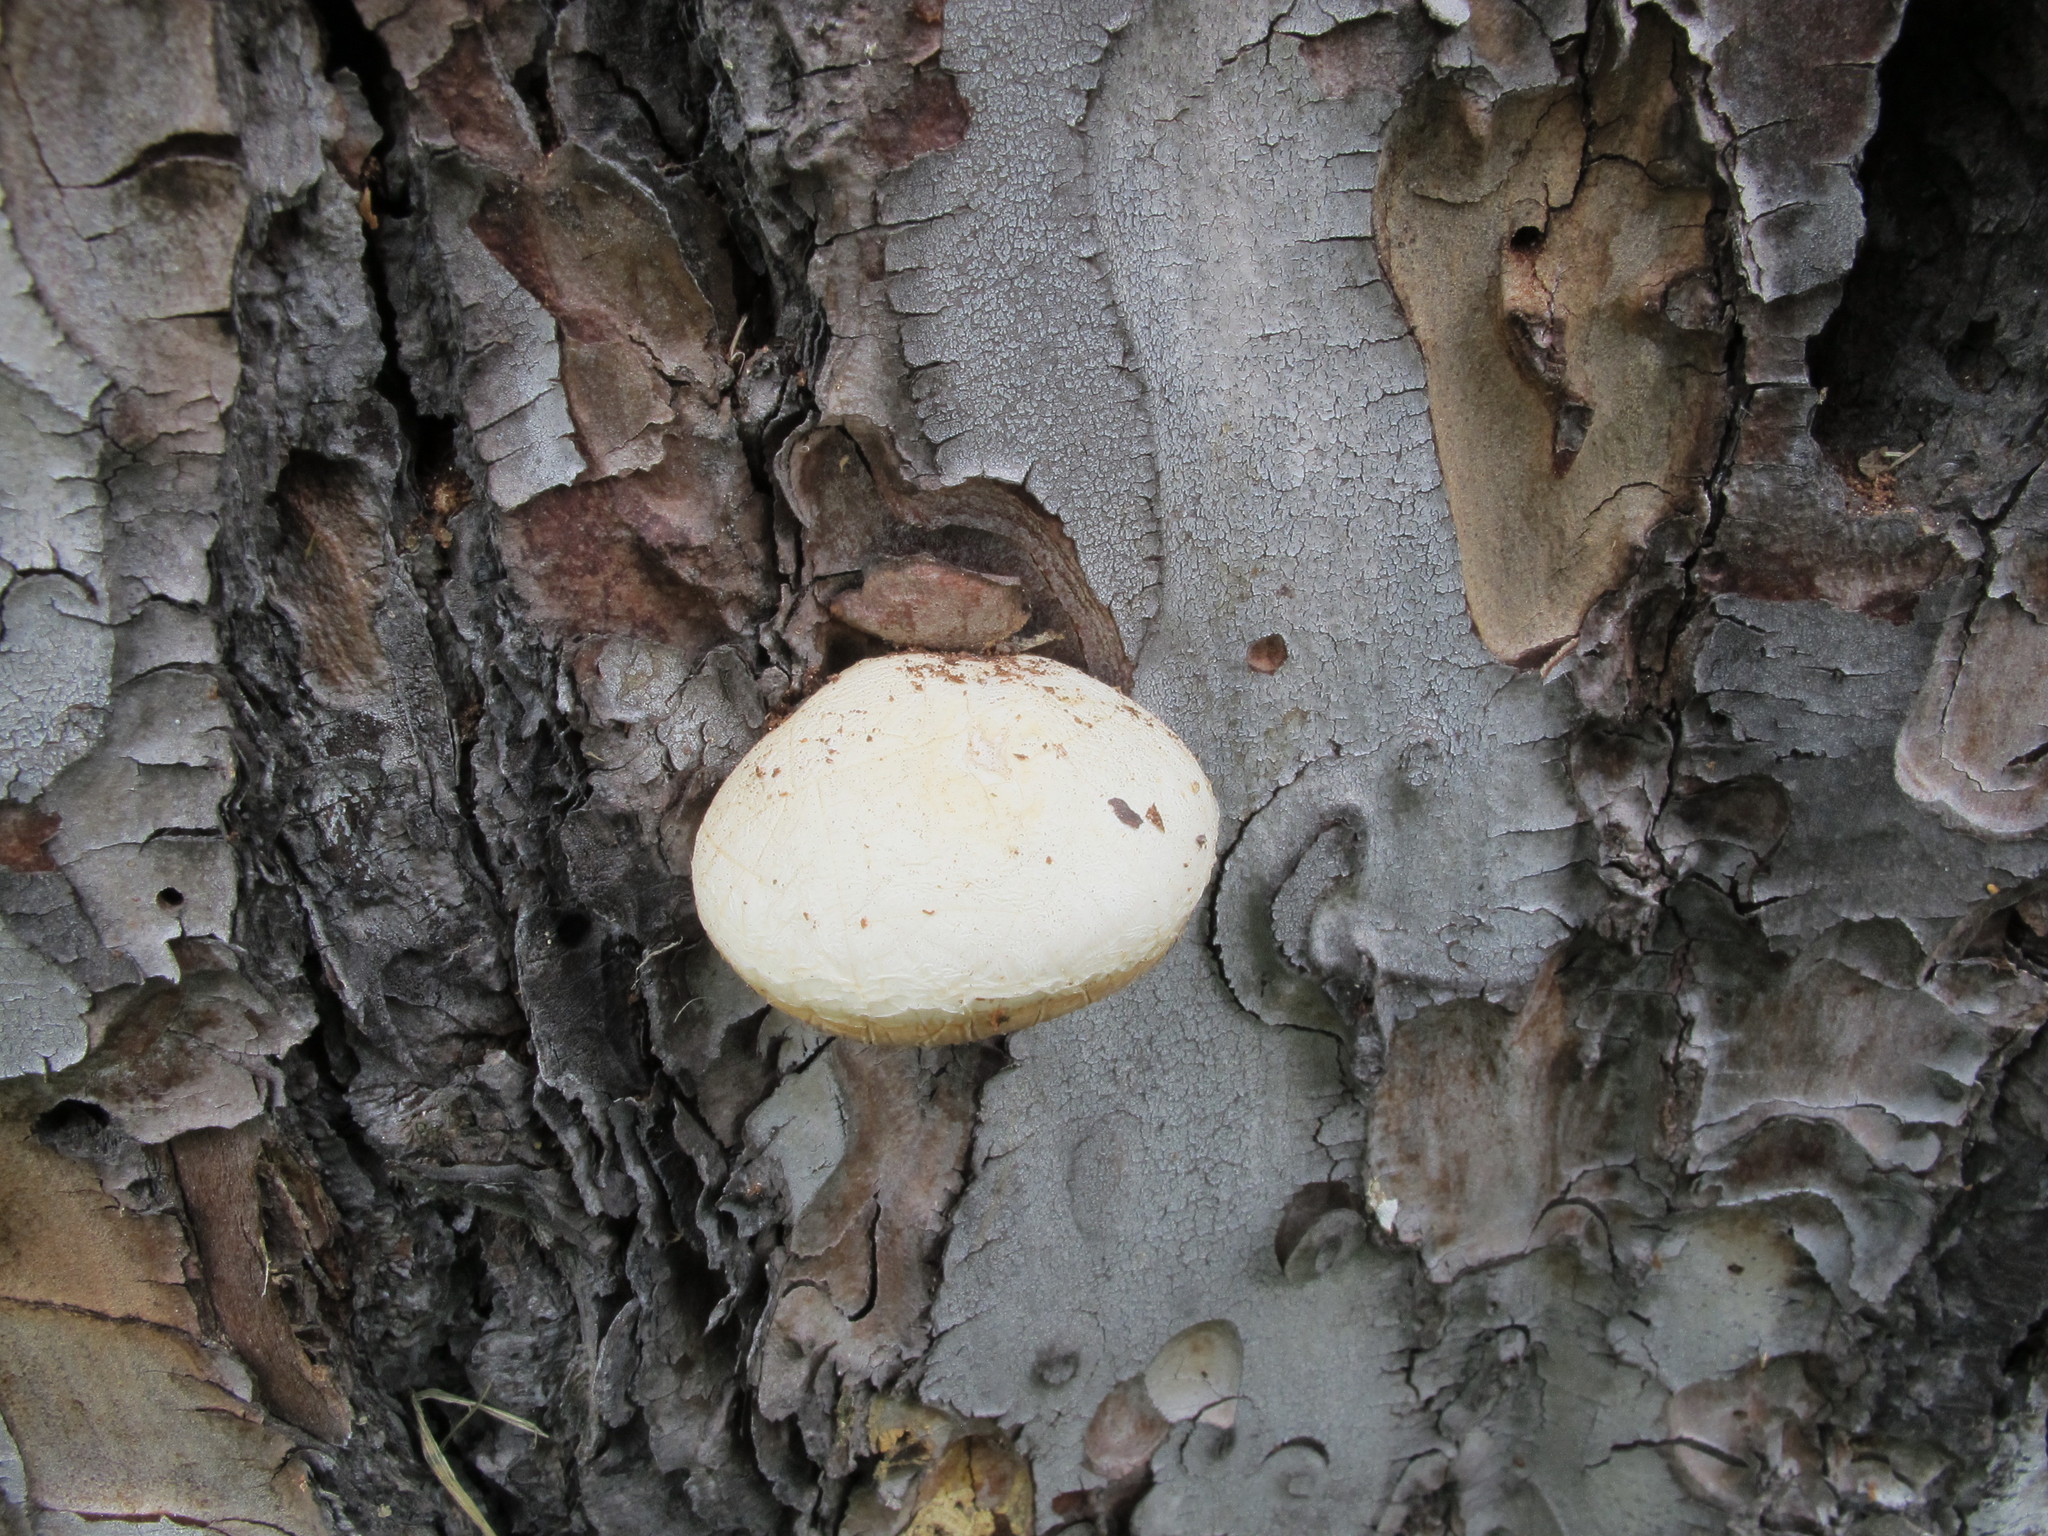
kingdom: Fungi
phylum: Basidiomycota
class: Agaricomycetes
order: Polyporales
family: Polyporaceae
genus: Cryptoporus
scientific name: Cryptoporus volvatus
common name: Veiled polypore
